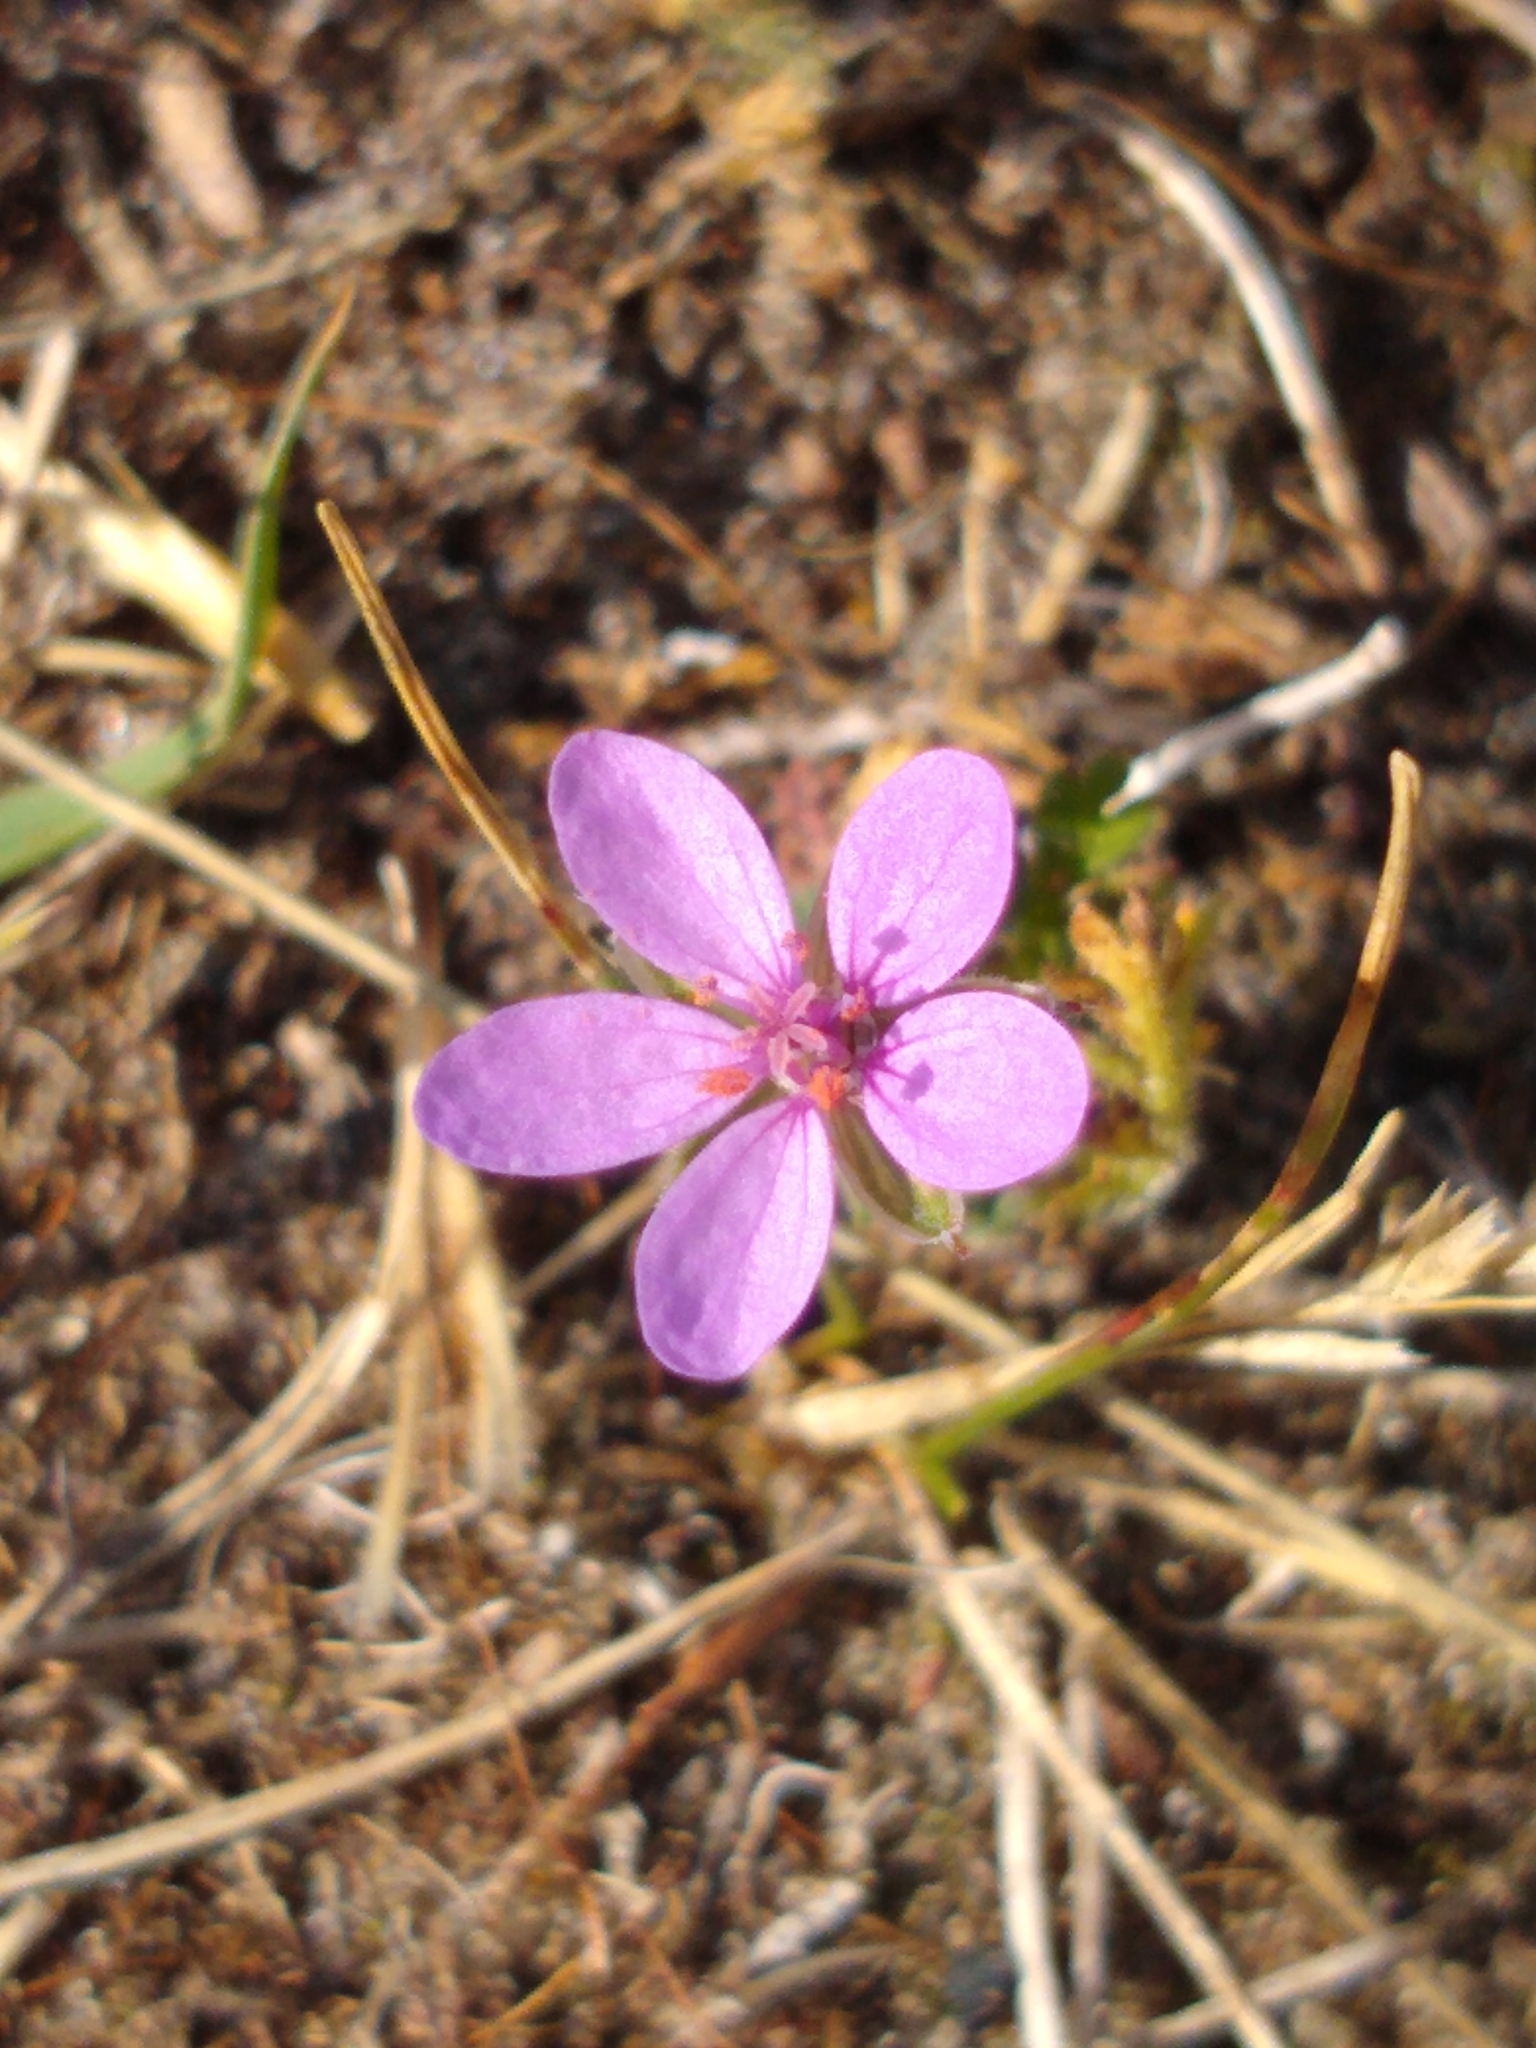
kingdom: Plantae
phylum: Tracheophyta
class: Magnoliopsida
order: Geraniales
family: Geraniaceae
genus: Erodium
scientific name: Erodium cicutarium
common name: Common stork's-bill
